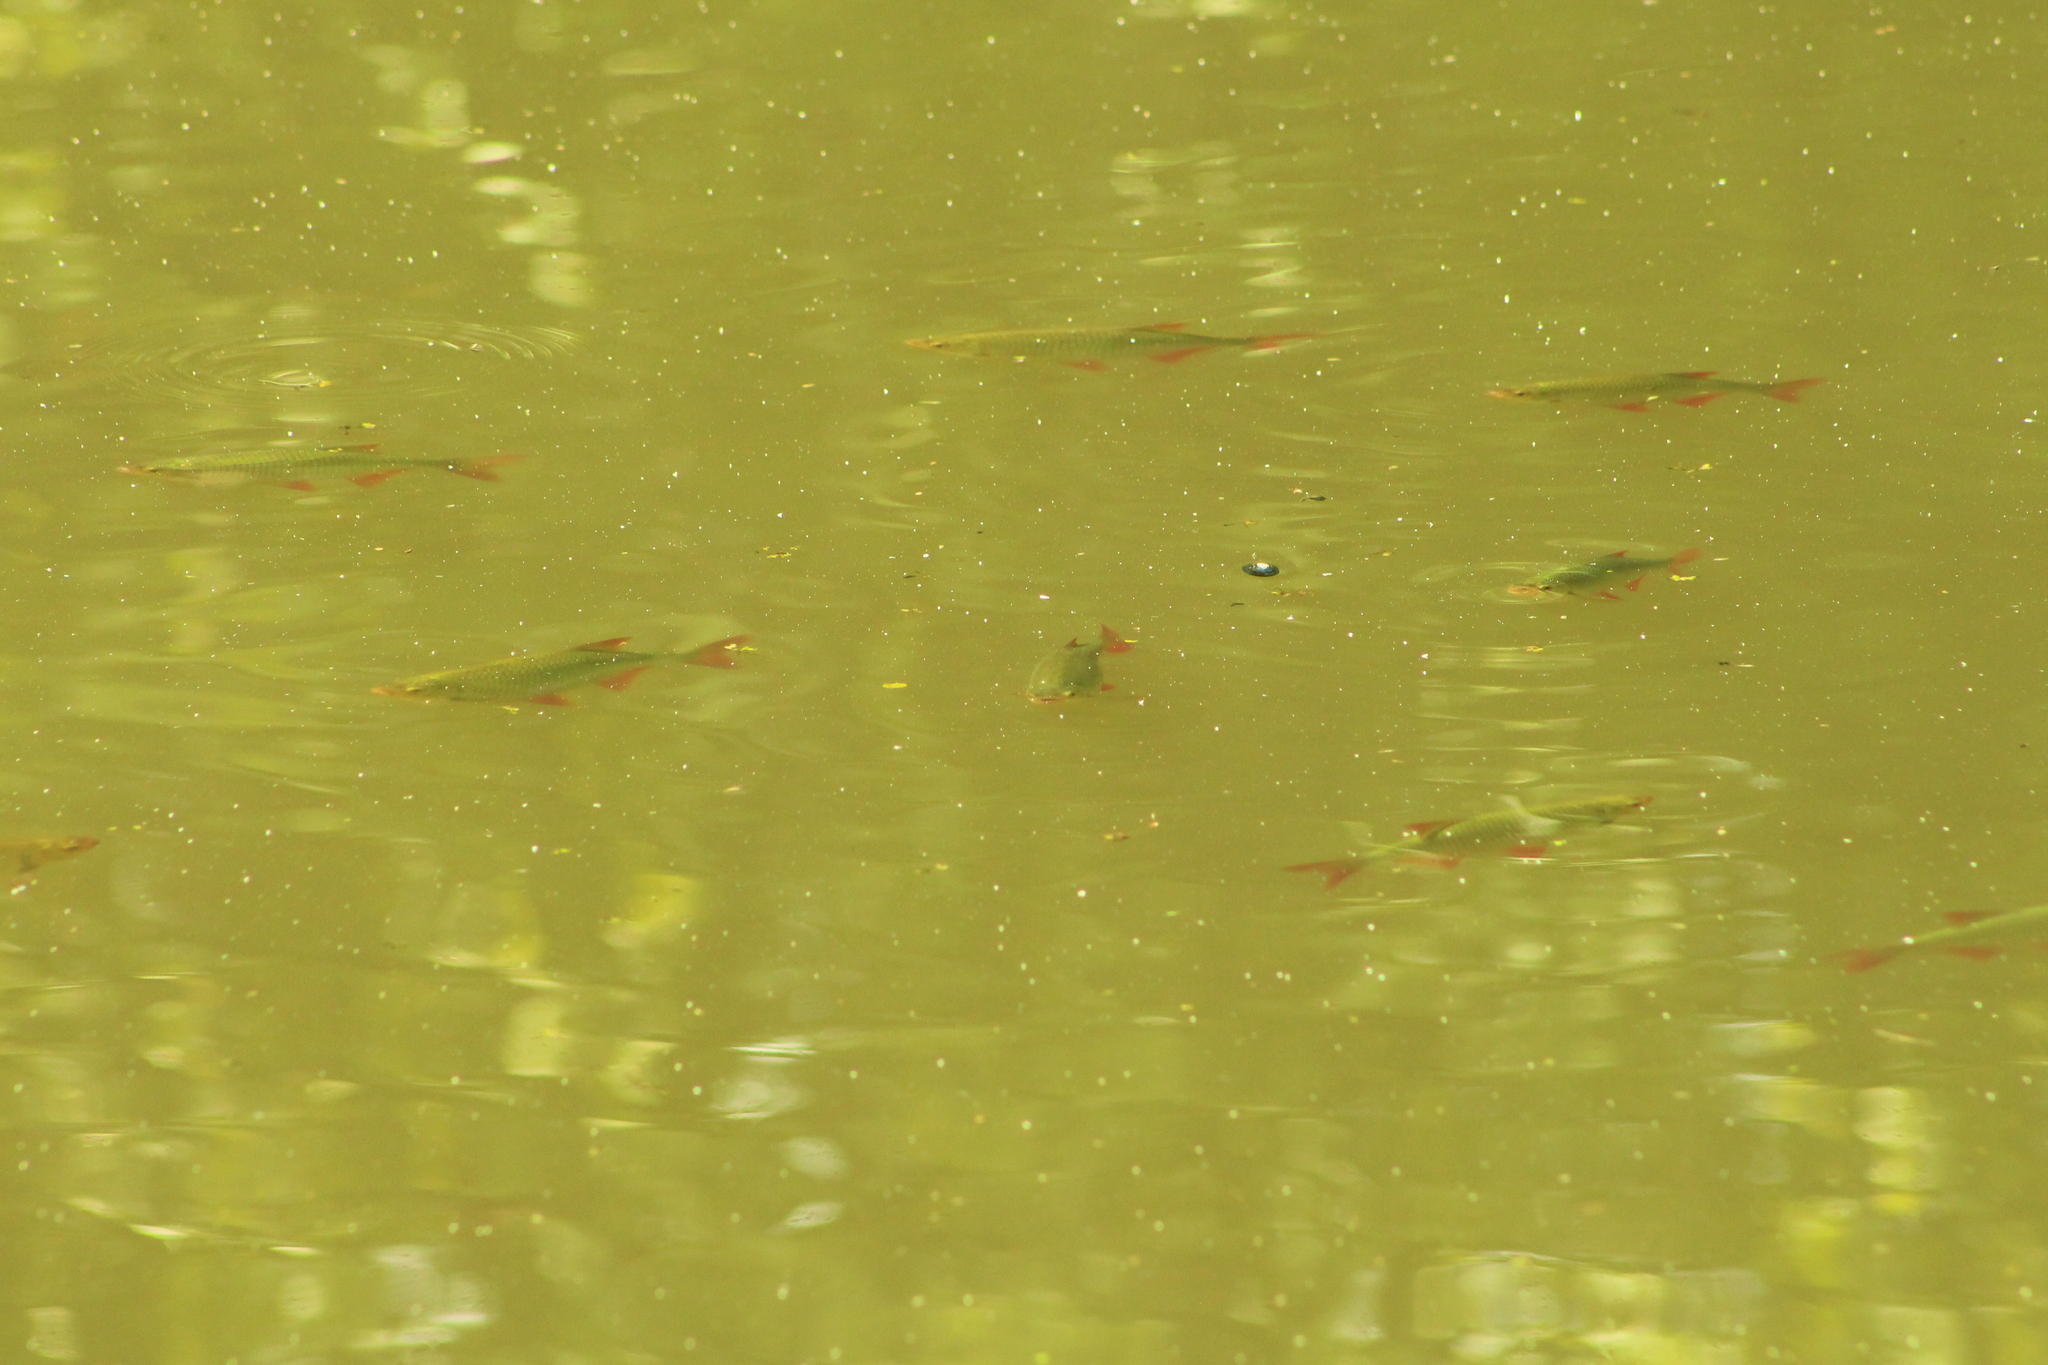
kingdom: Animalia
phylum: Chordata
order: Cypriniformes
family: Cyprinidae
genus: Scardinius
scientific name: Scardinius erythrophthalmus
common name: Rudd
